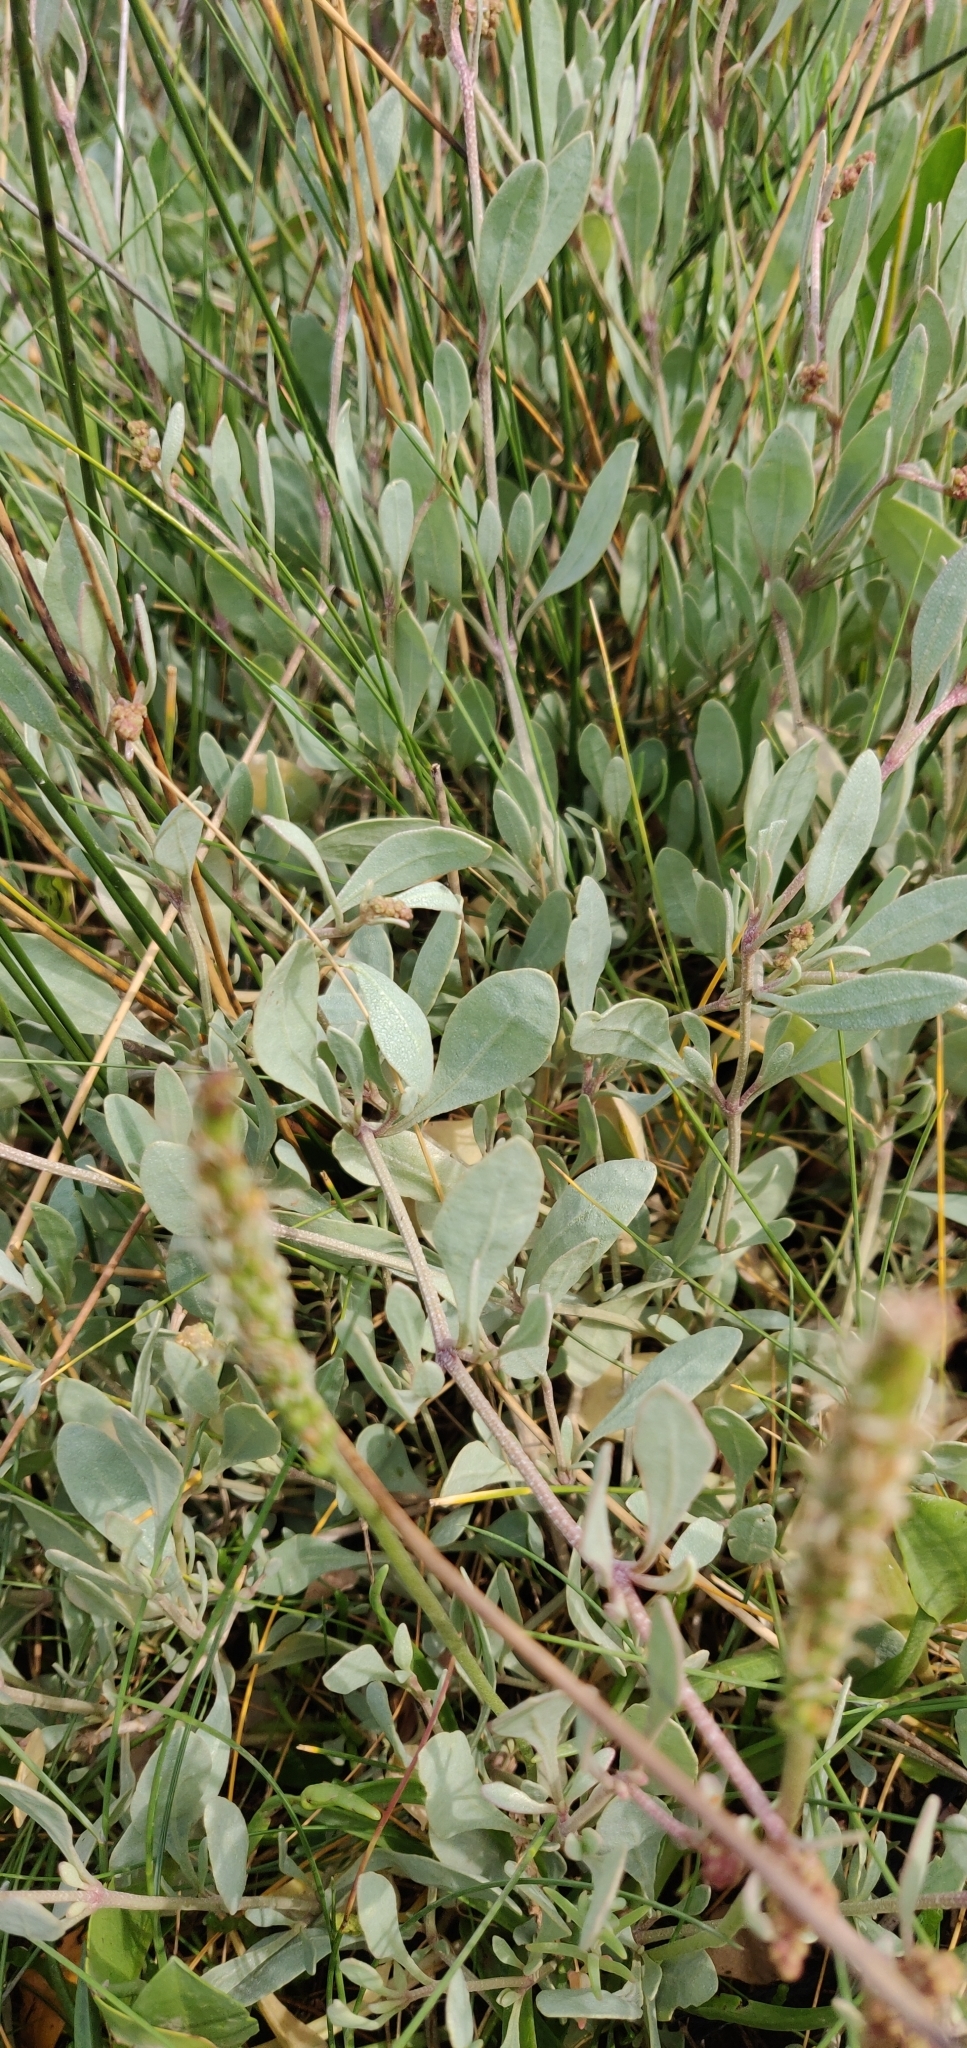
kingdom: Plantae
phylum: Tracheophyta
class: Magnoliopsida
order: Caryophyllales
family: Amaranthaceae
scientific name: Amaranthaceae
